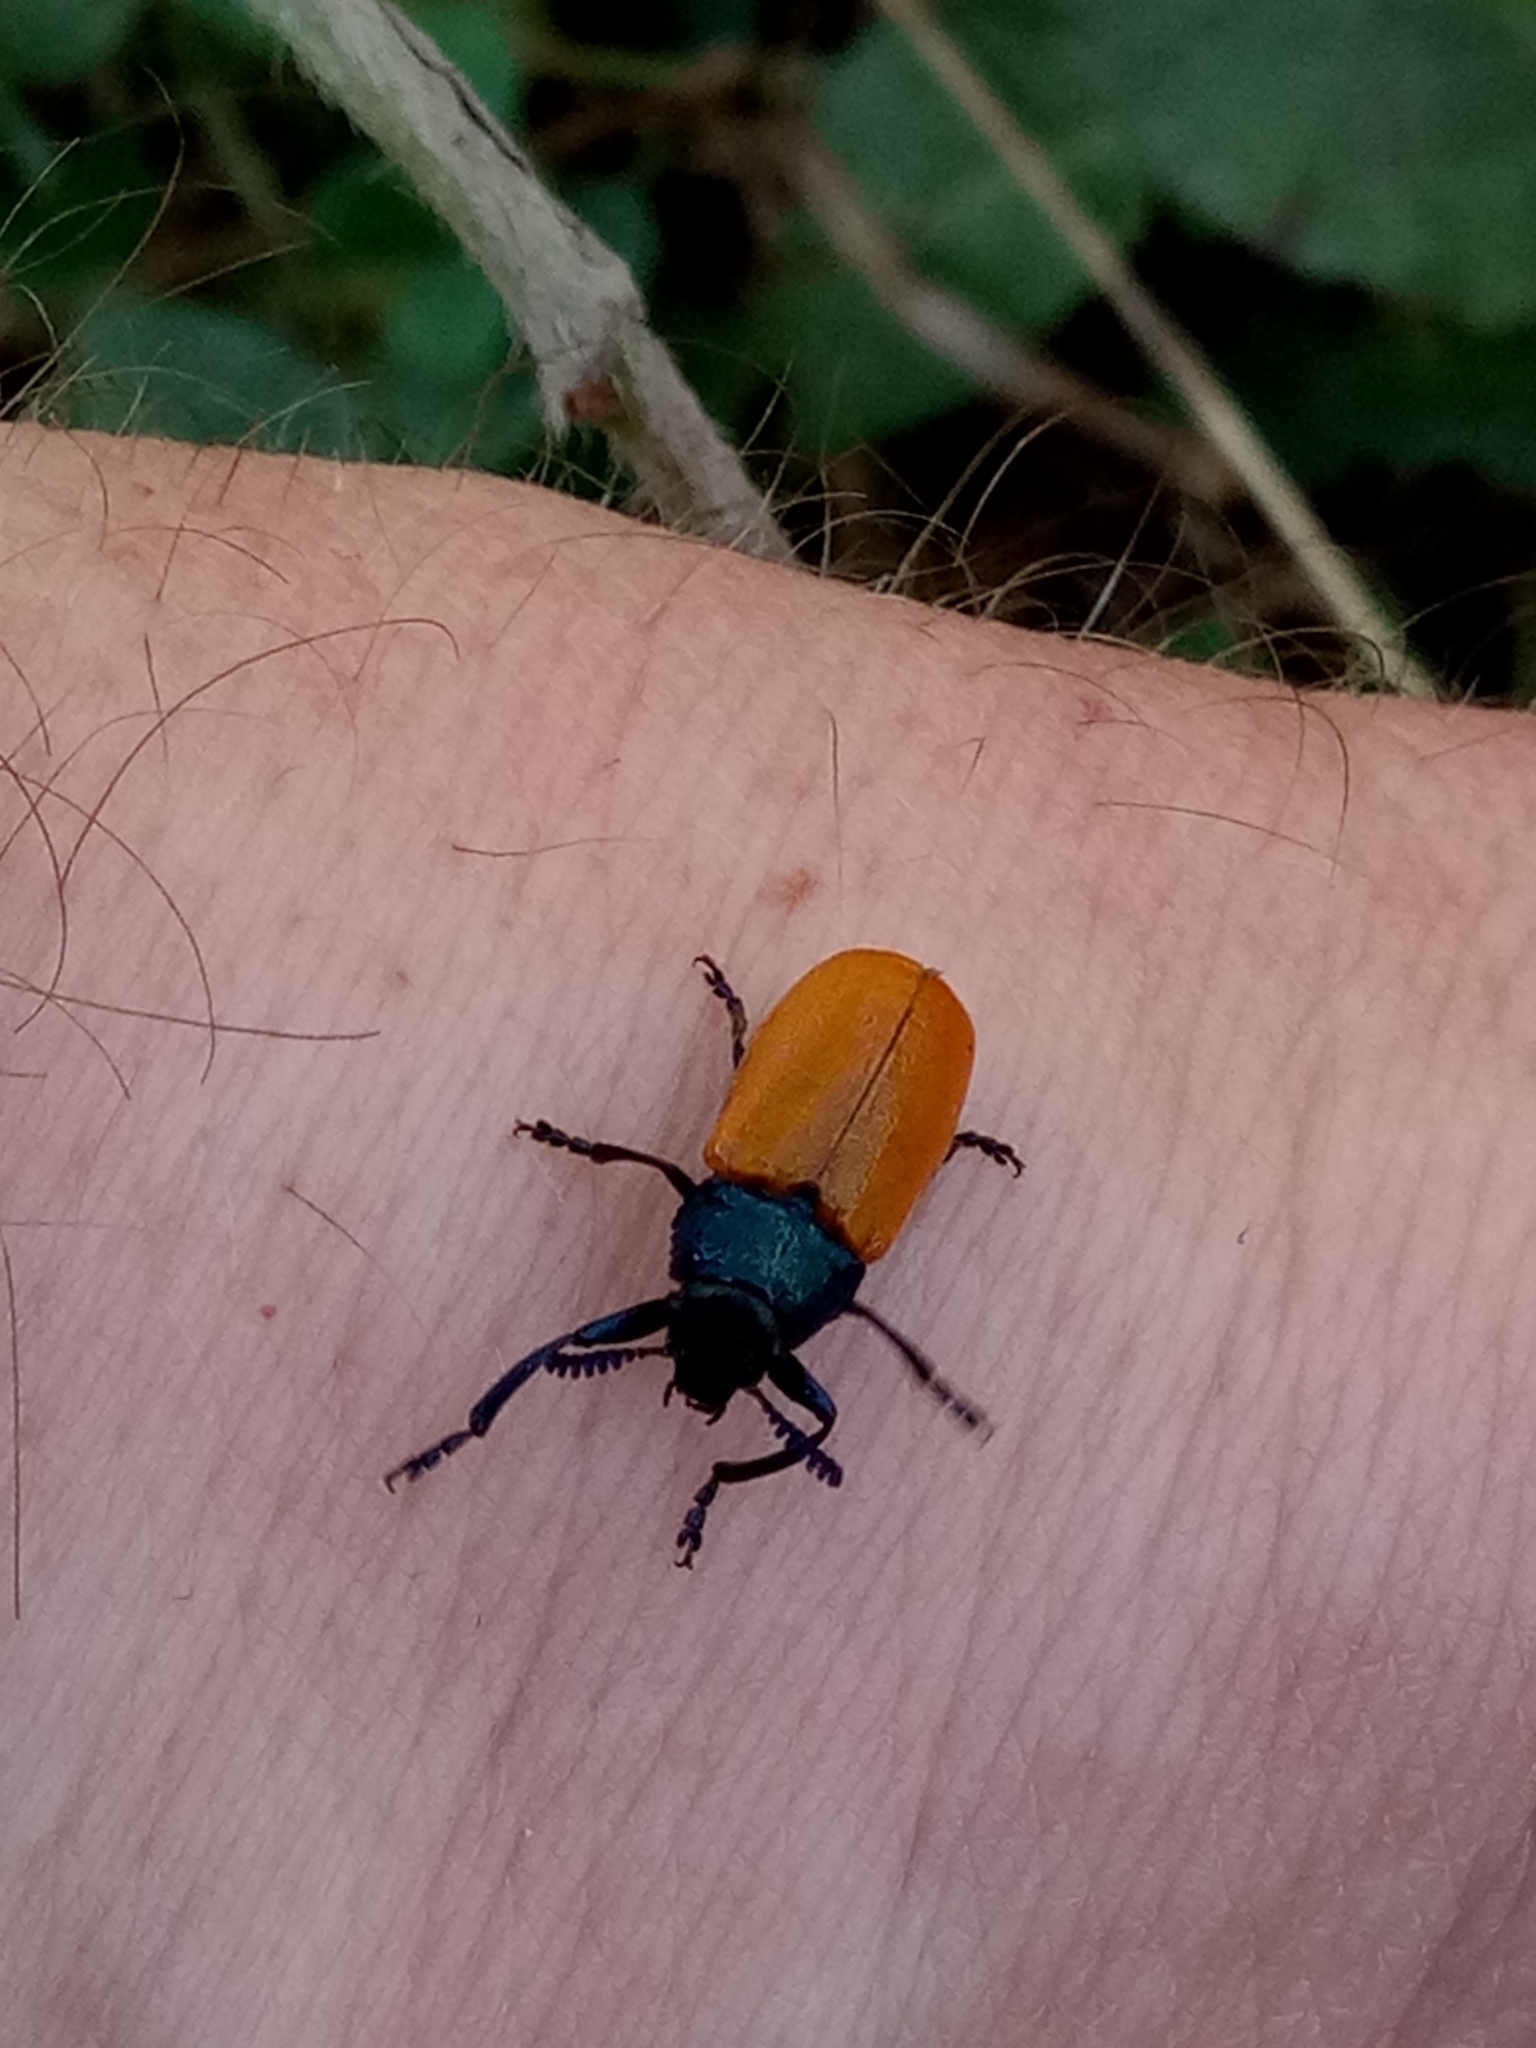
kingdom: Animalia
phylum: Arthropoda
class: Insecta
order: Coleoptera
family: Chrysomelidae
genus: Labidostomis
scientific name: Labidostomis
